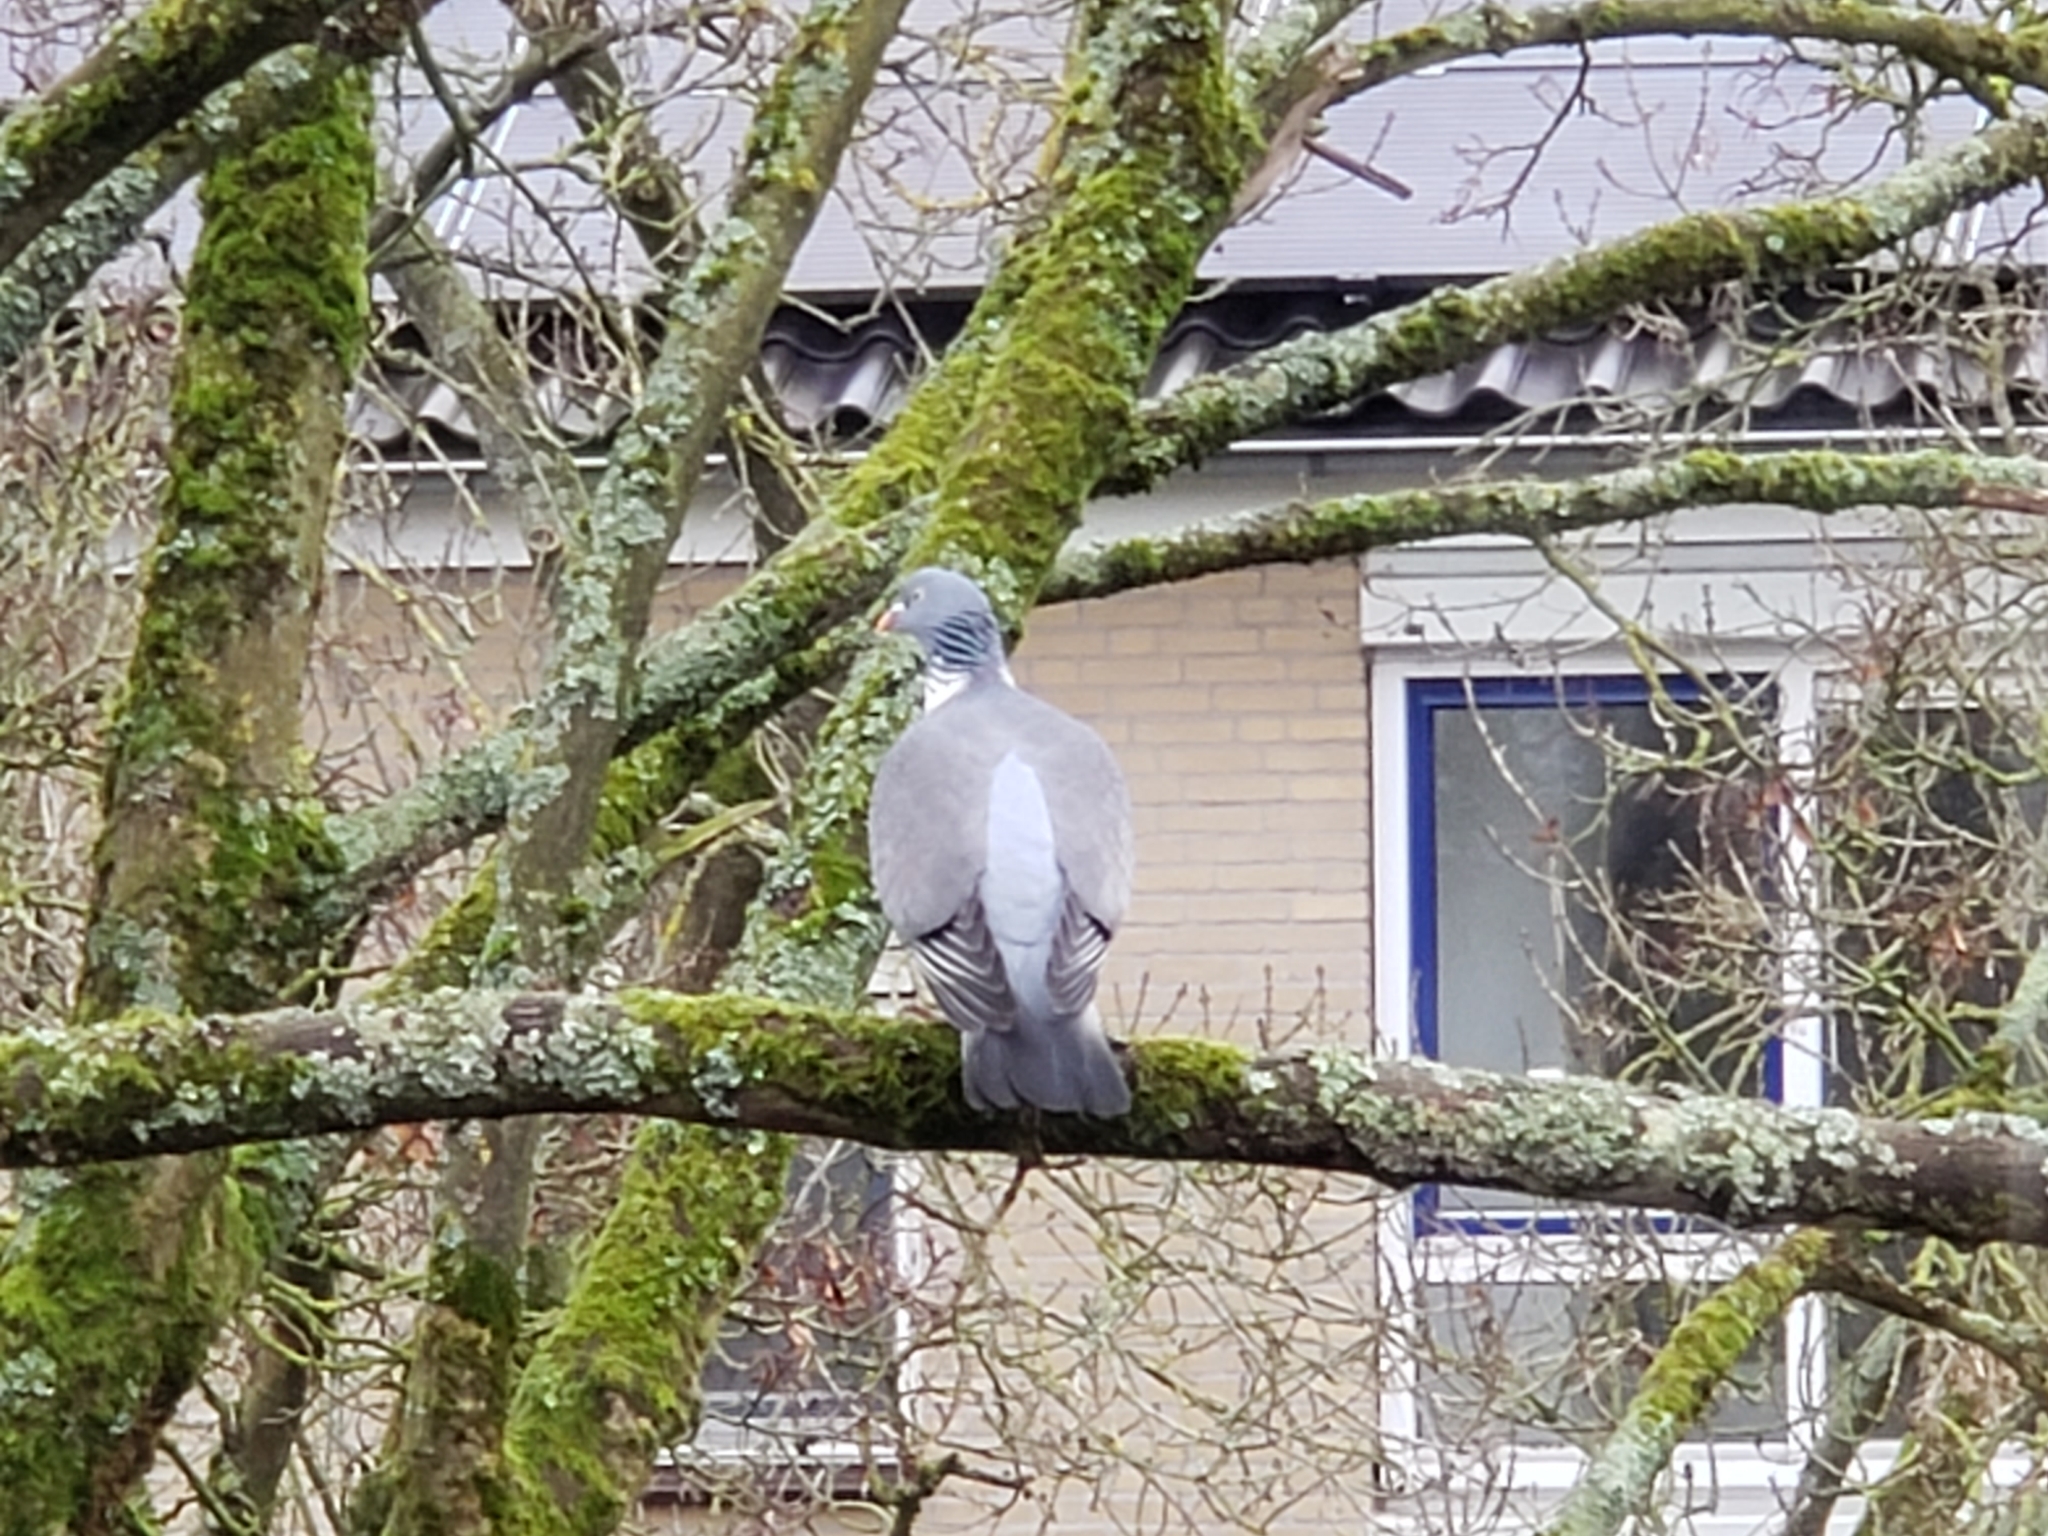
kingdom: Animalia
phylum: Chordata
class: Aves
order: Columbiformes
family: Columbidae
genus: Columba
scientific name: Columba palumbus
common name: Common wood pigeon
